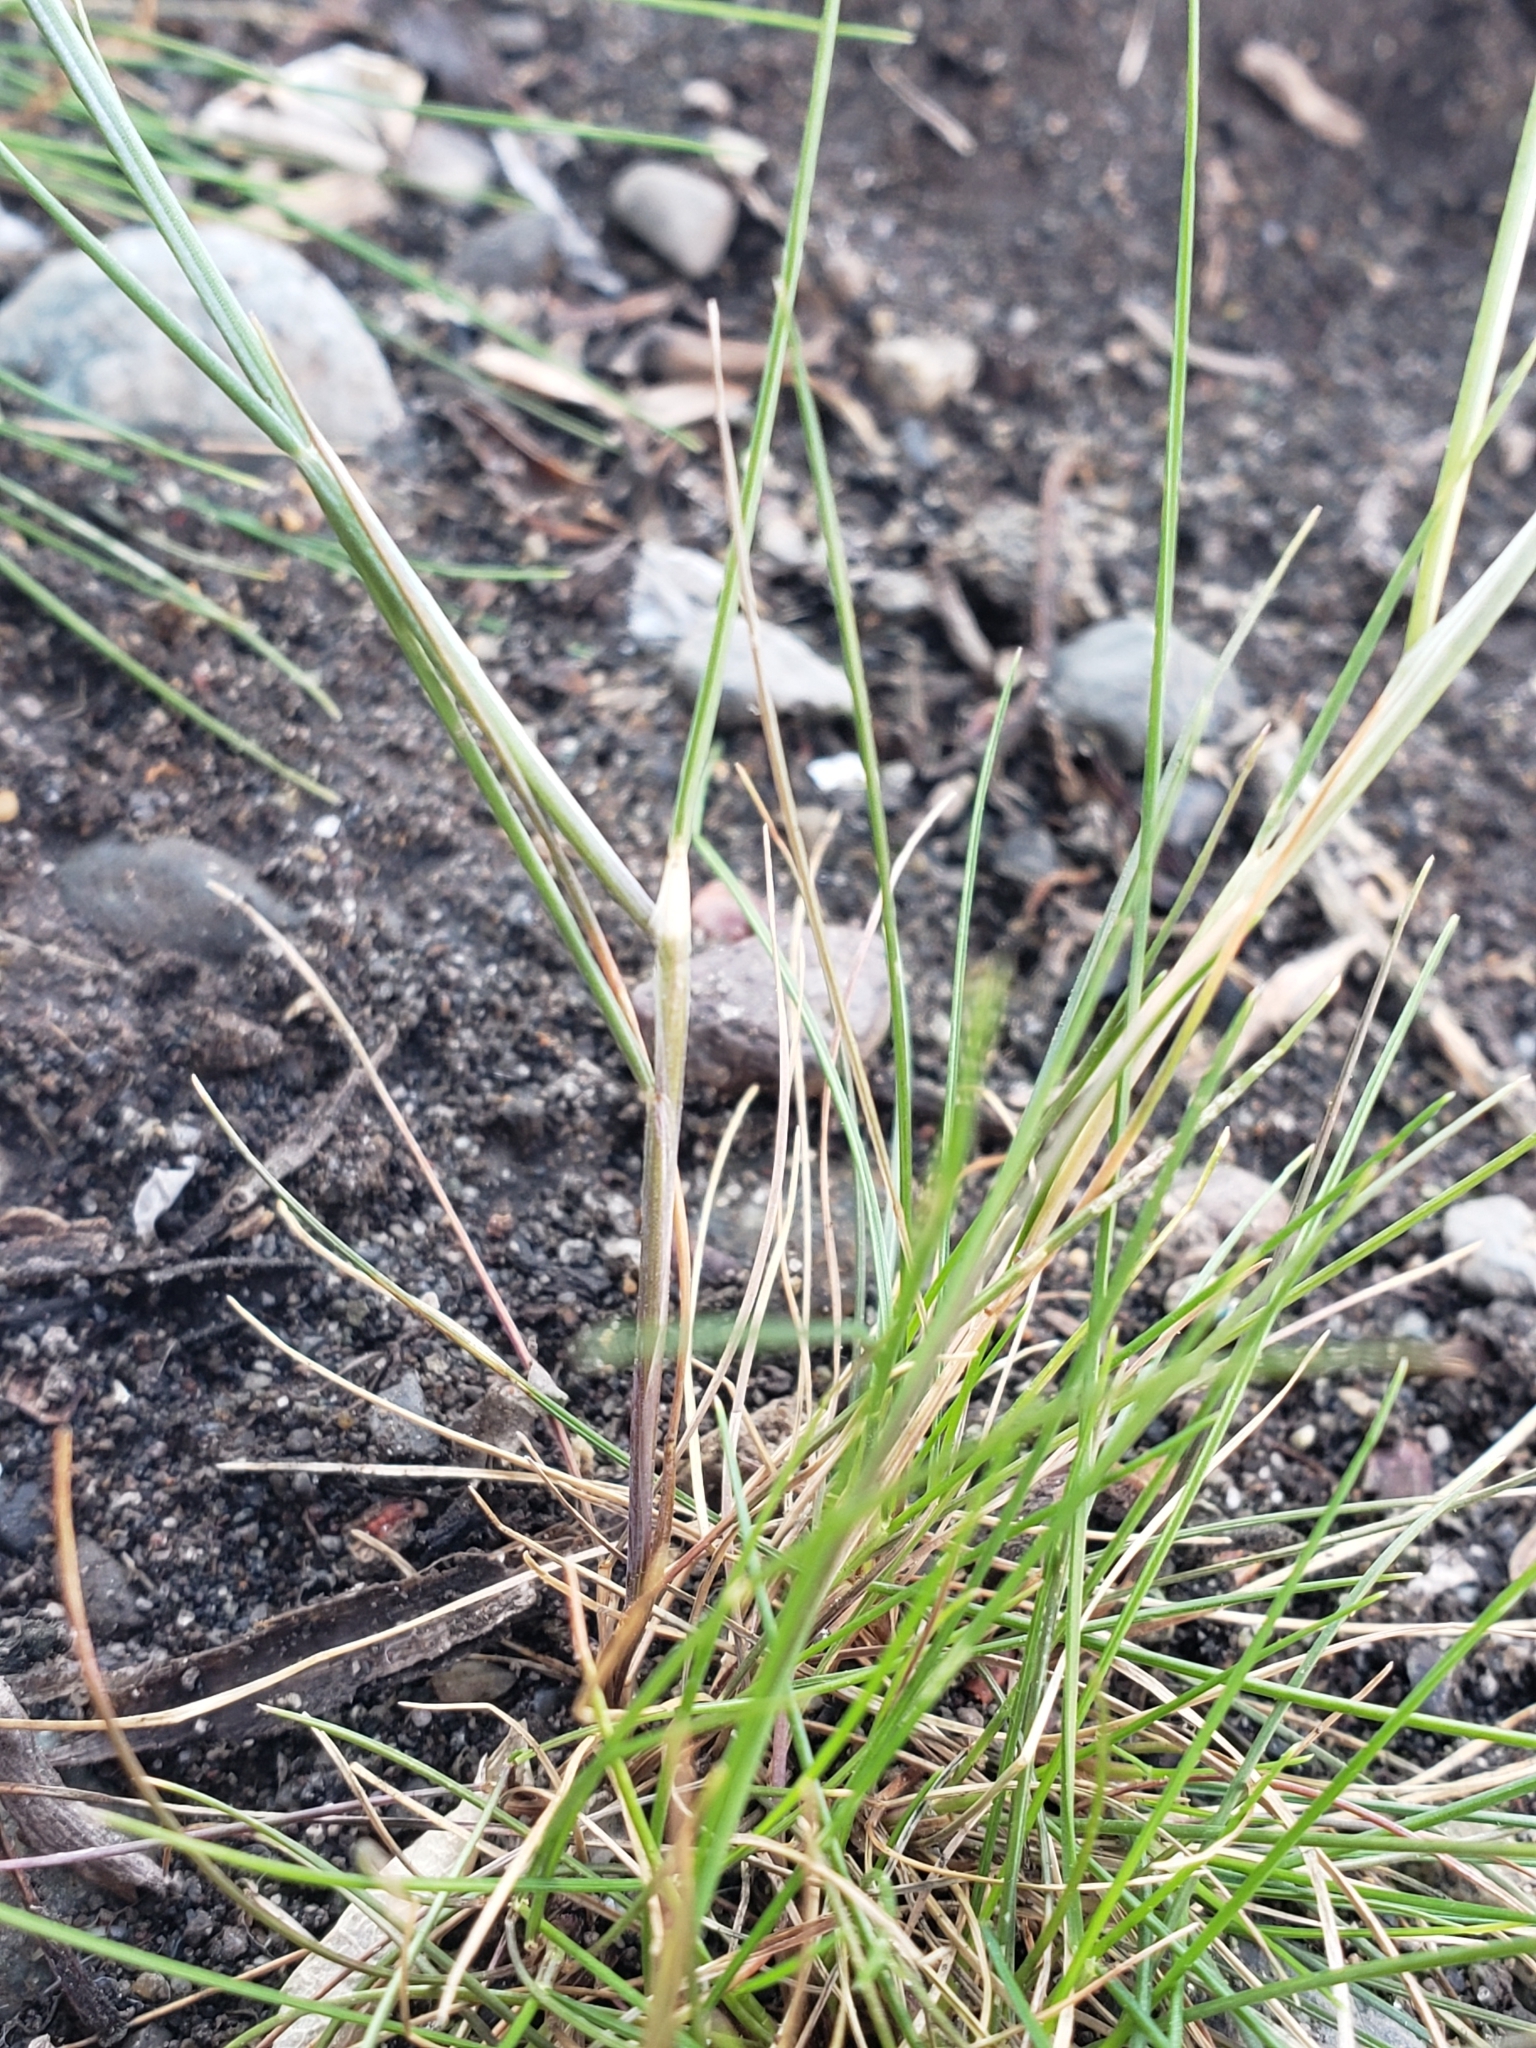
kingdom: Plantae
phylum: Tracheophyta
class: Liliopsida
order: Poales
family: Poaceae
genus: Festuca
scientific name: Festuca myuros
